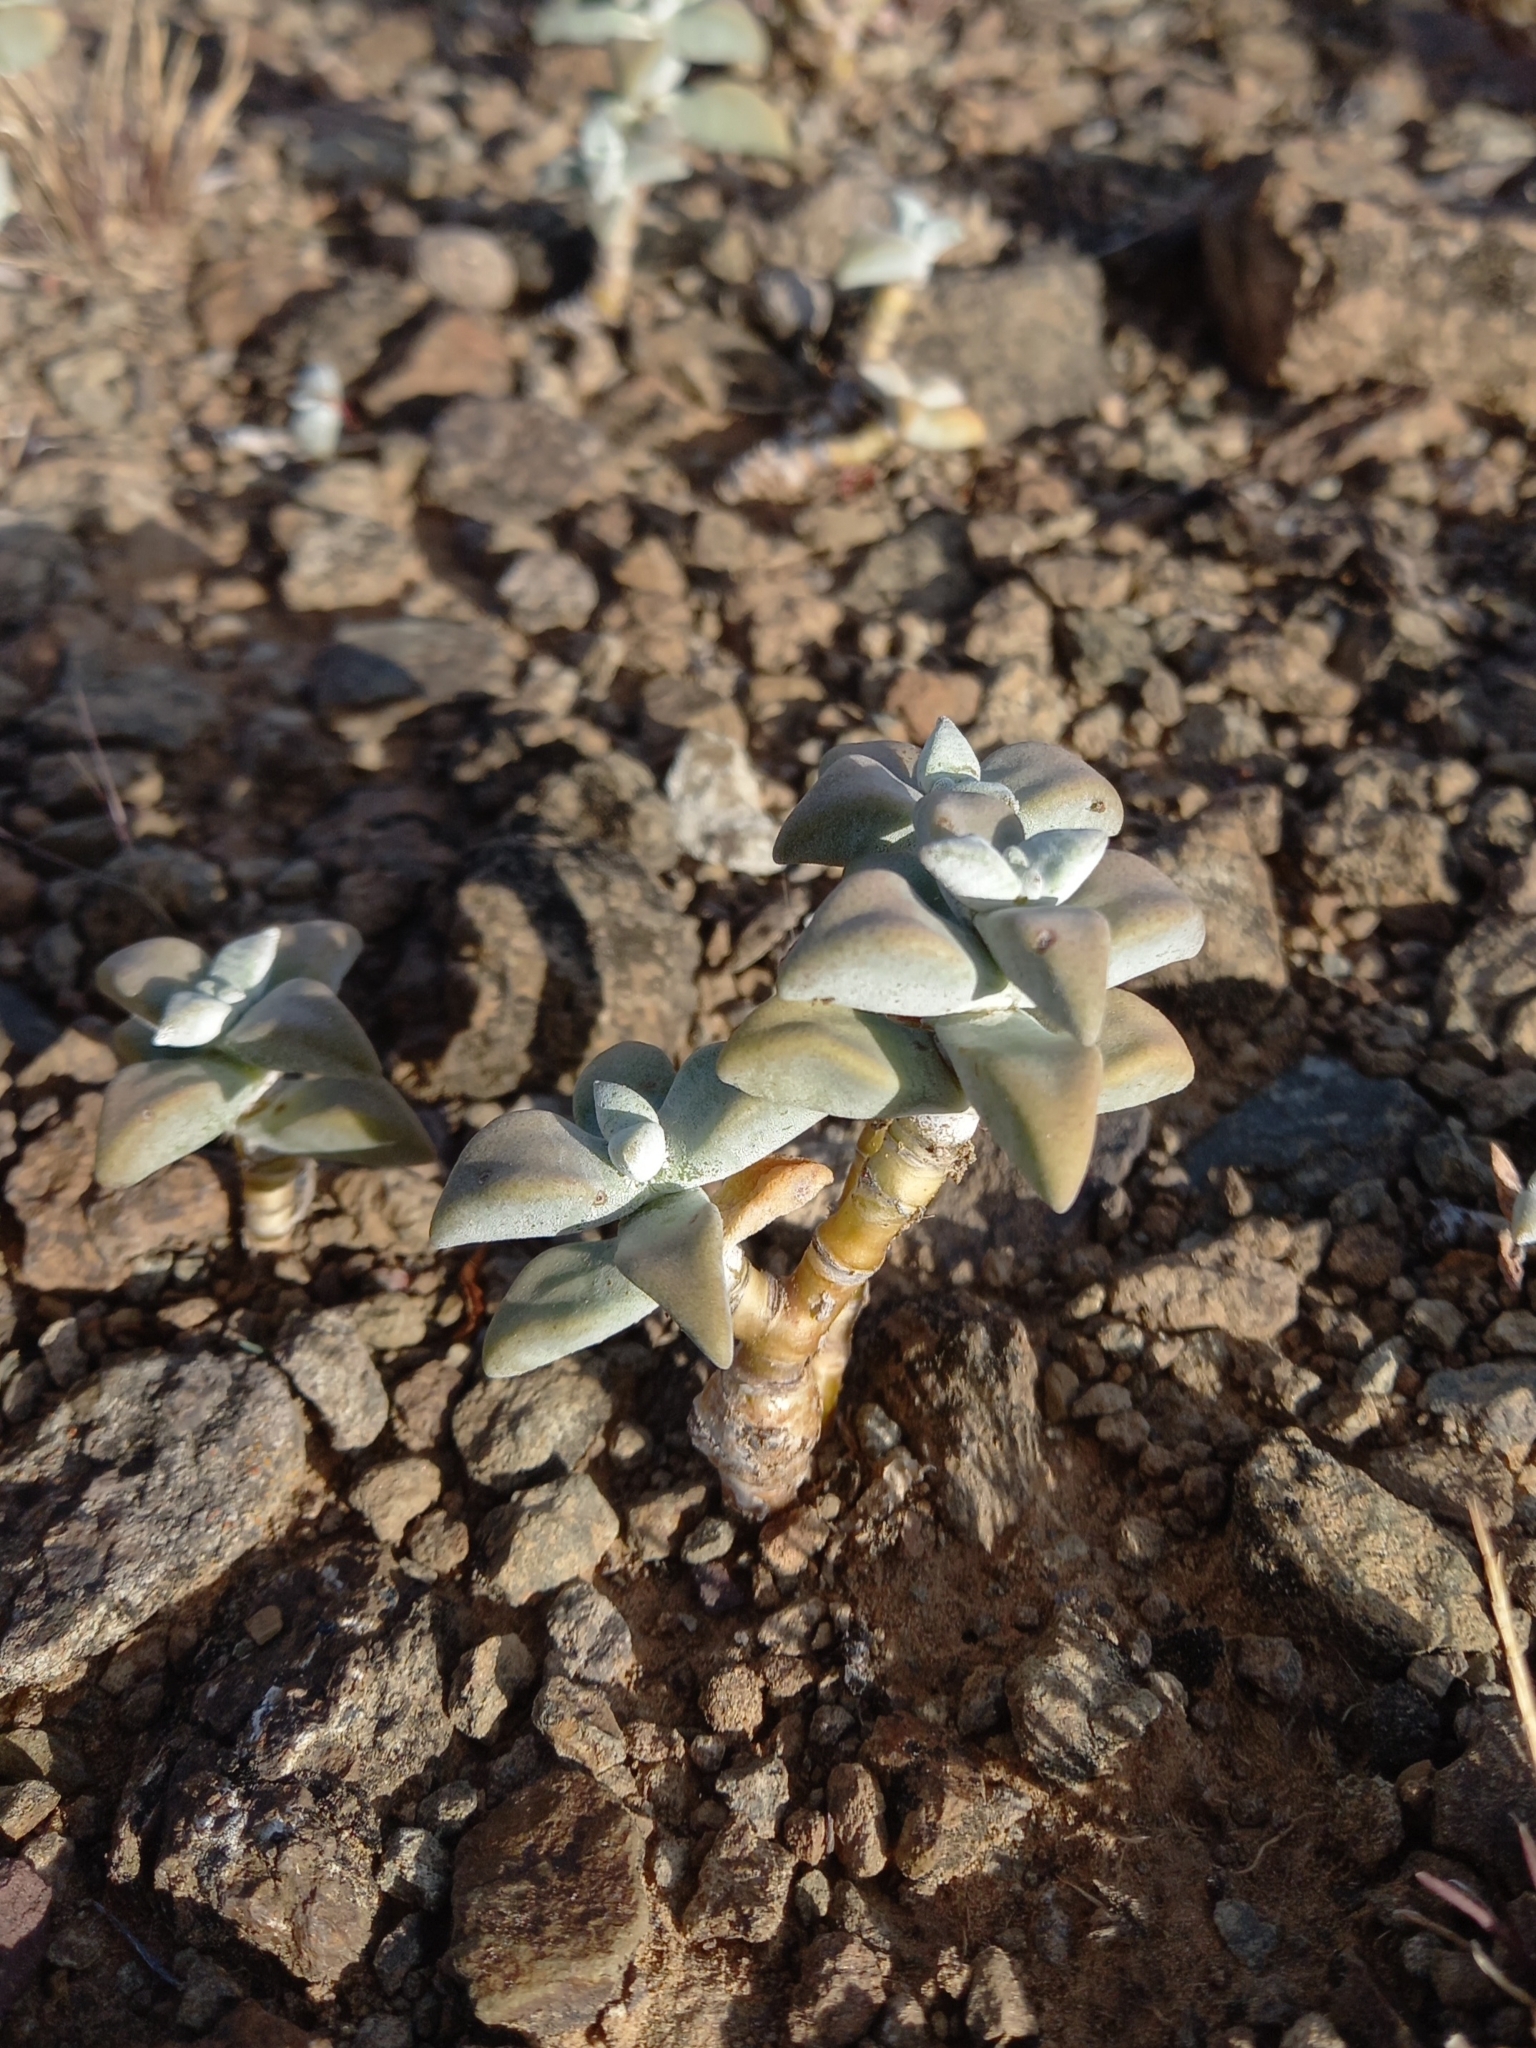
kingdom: Plantae
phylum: Tracheophyta
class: Magnoliopsida
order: Saxifragales
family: Crassulaceae
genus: Crassula
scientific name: Crassula deltoidea
